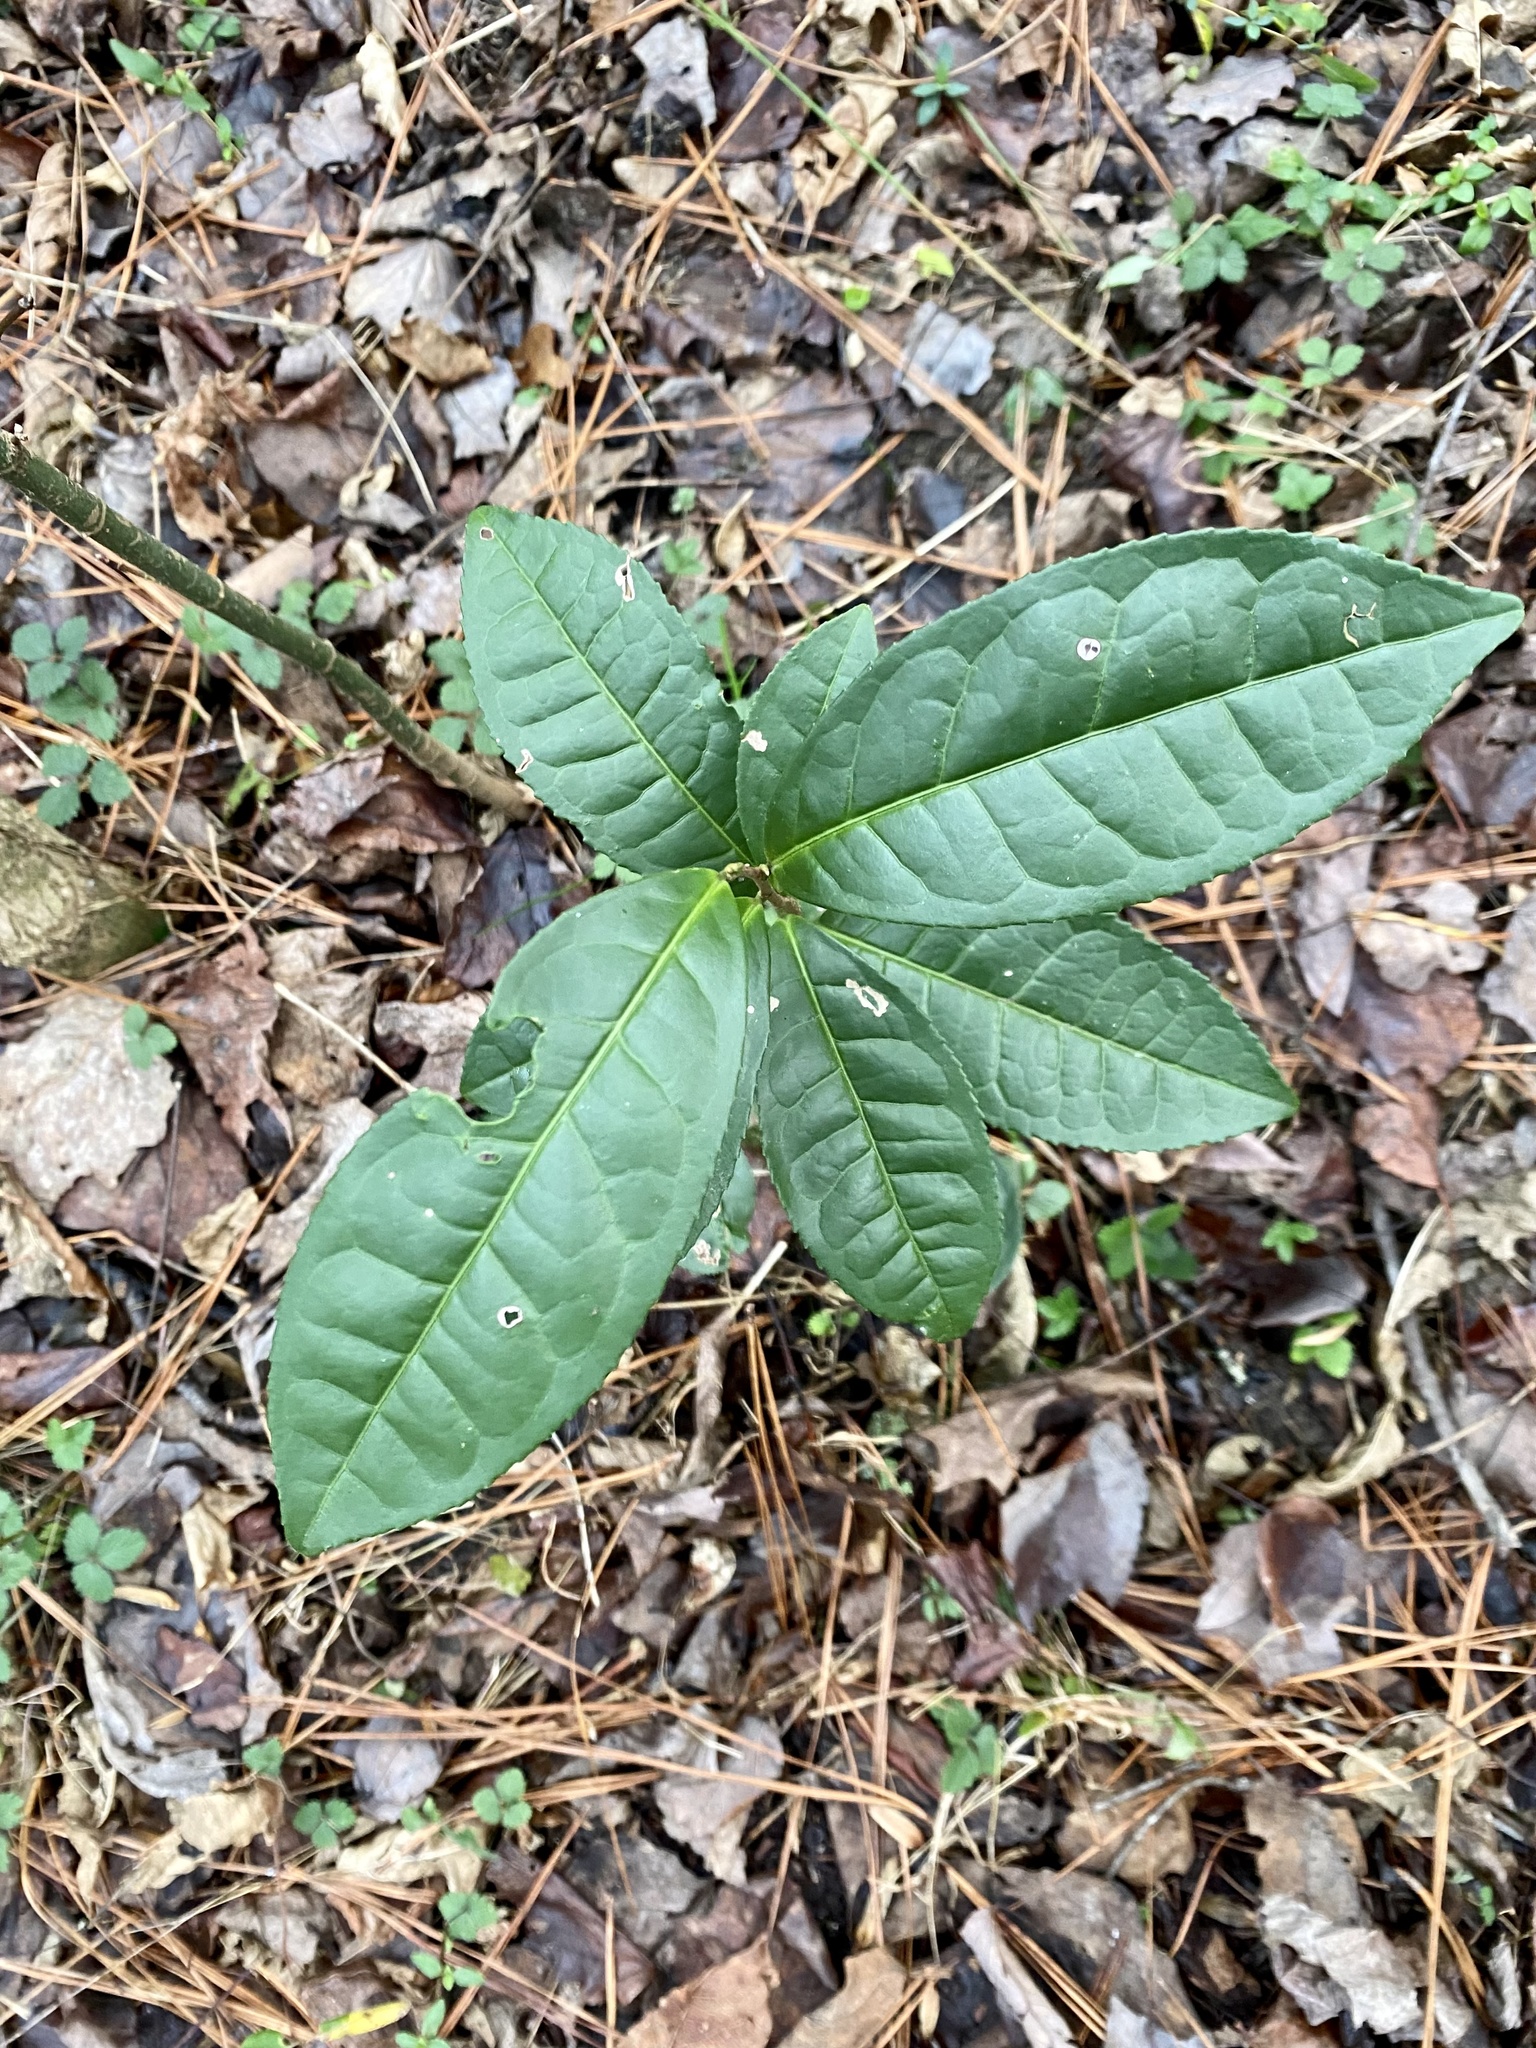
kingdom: Plantae
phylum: Tracheophyta
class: Magnoliopsida
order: Ericales
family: Ericaceae
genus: Oxydendrum
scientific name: Oxydendrum arboreum
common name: Sourwood
